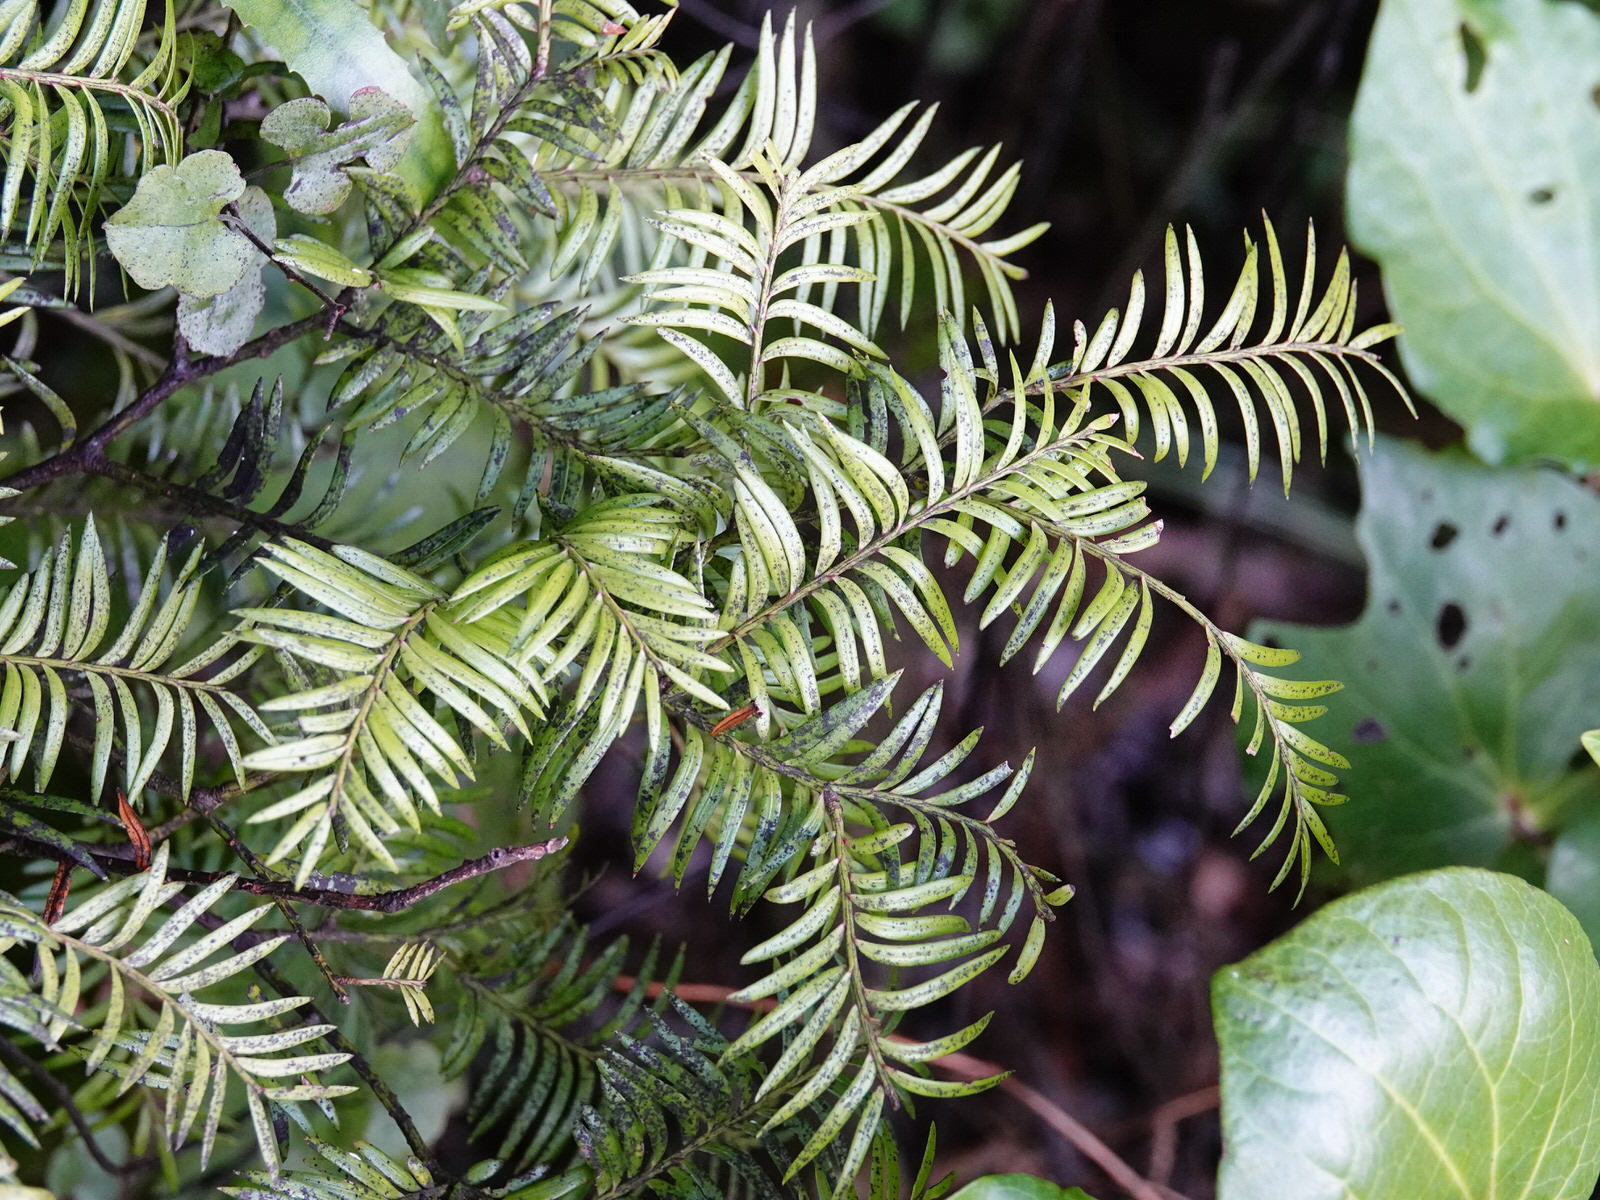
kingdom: Plantae
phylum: Tracheophyta
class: Pinopsida
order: Pinales
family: Podocarpaceae
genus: Prumnopitys
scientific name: Prumnopitys ferruginea
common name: Brown pine
